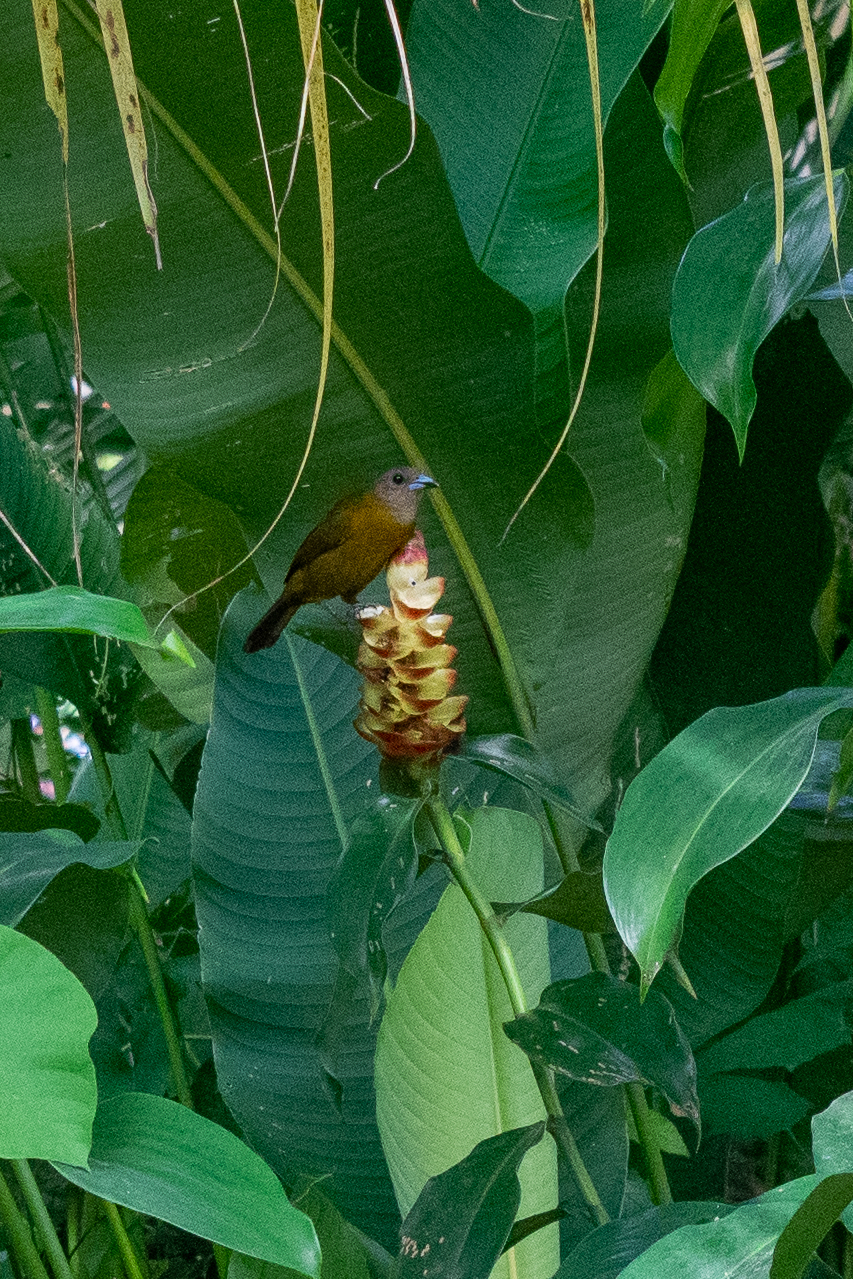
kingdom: Animalia
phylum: Chordata
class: Aves
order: Passeriformes
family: Thraupidae
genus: Ramphocelus
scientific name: Ramphocelus passerinii
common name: Passerini's tanager
